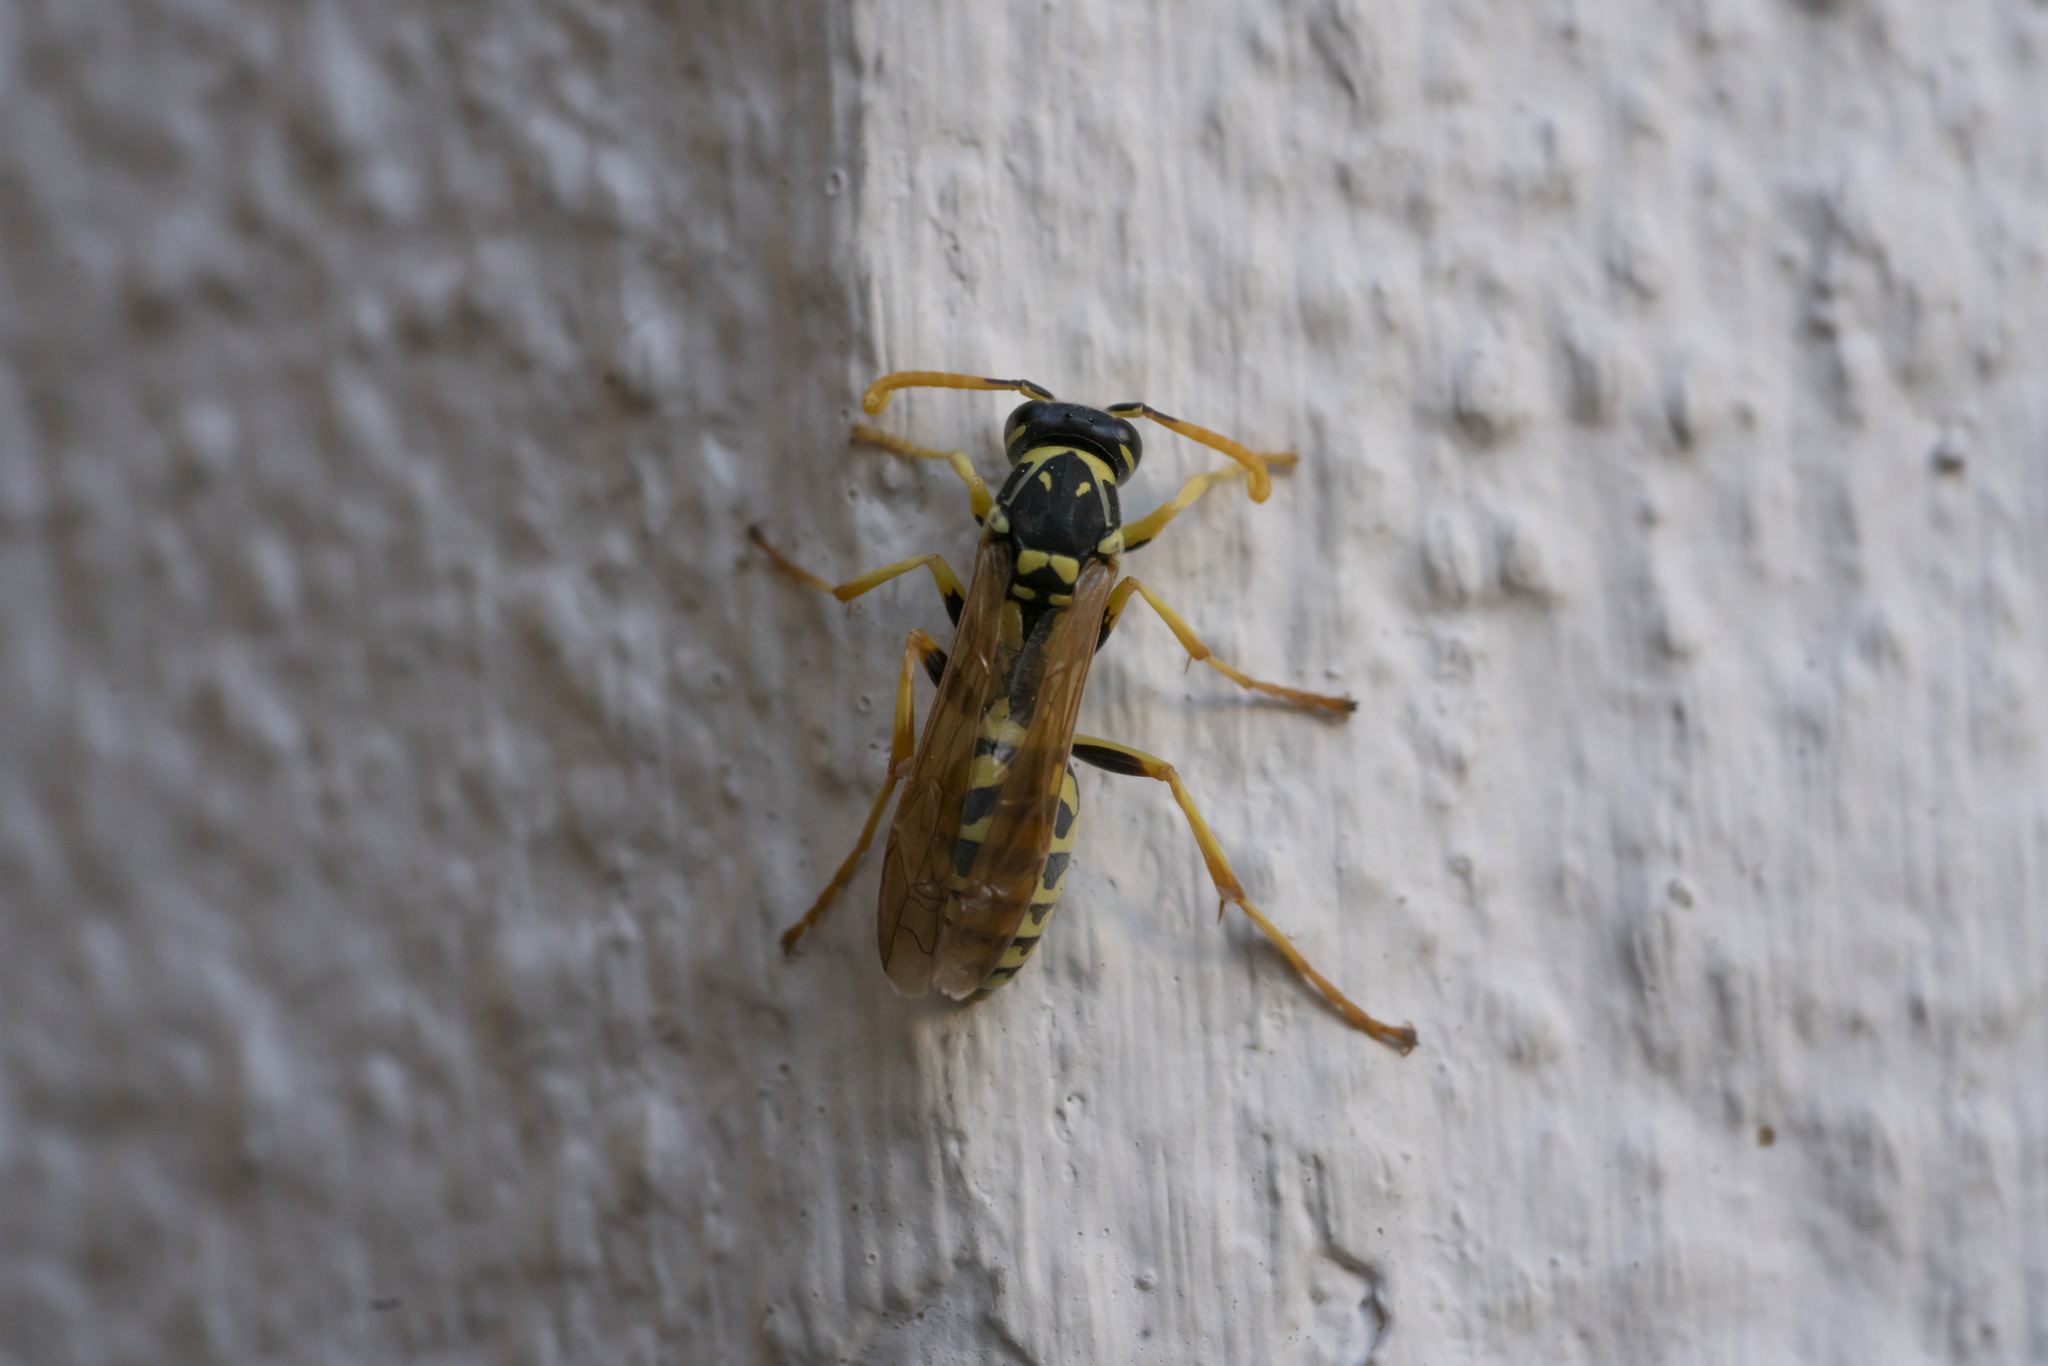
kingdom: Animalia
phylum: Arthropoda
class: Insecta
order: Hymenoptera
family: Eumenidae
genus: Polistes
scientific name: Polistes gallicus
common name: Paper wasp
